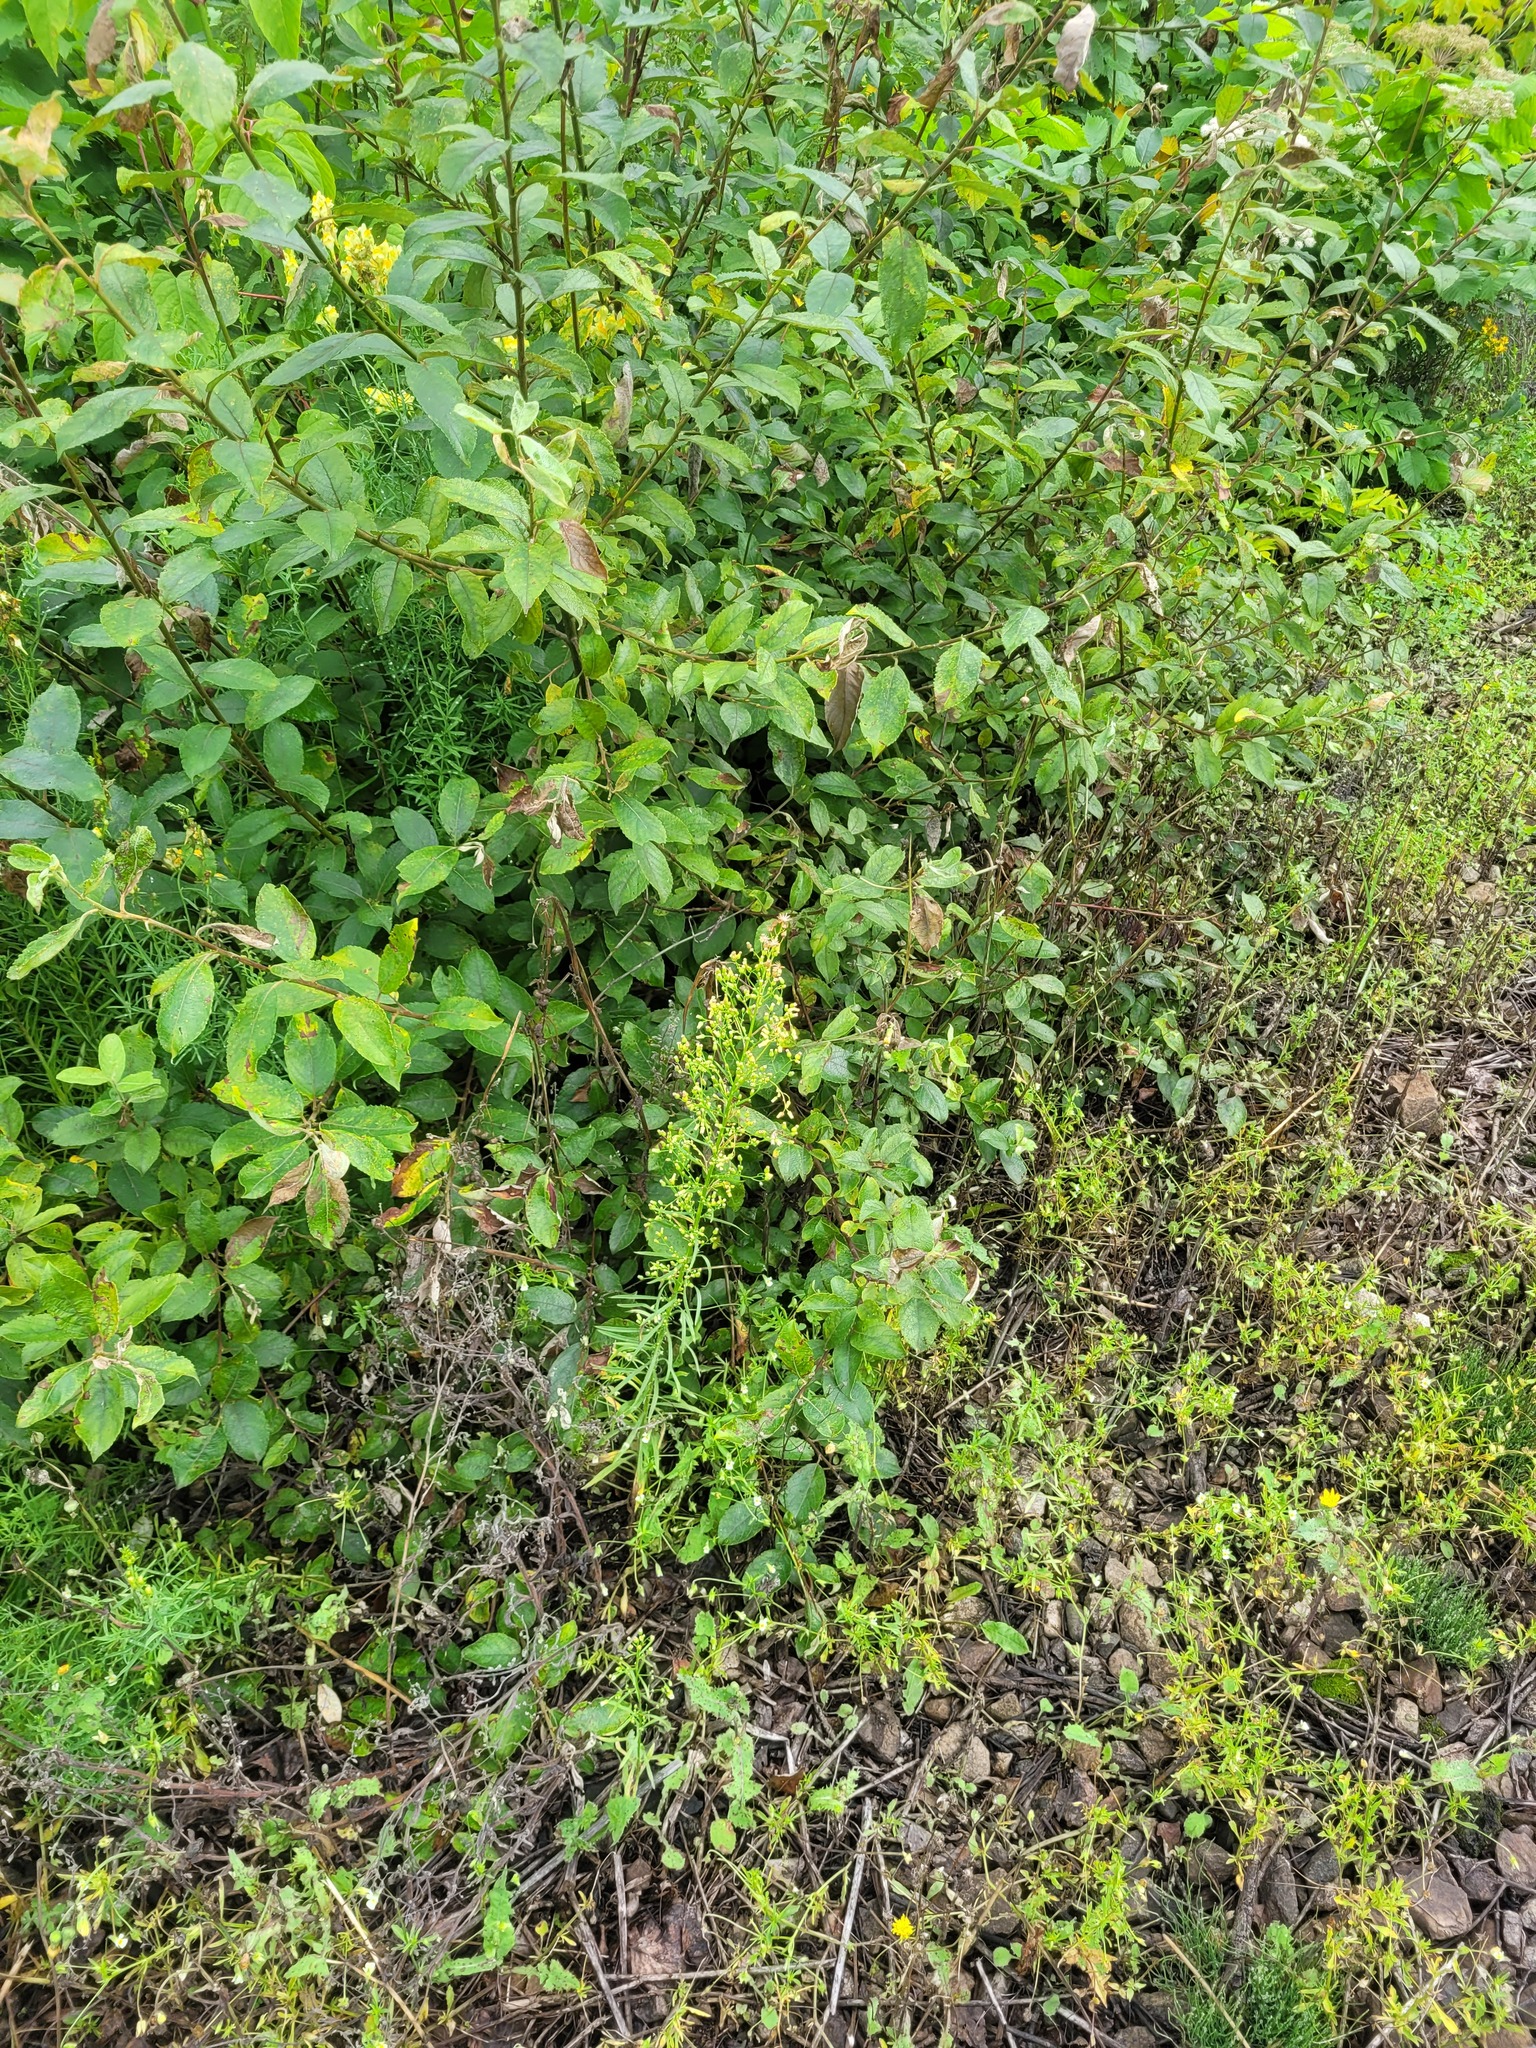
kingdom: Plantae
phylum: Tracheophyta
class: Magnoliopsida
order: Asterales
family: Asteraceae
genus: Erigeron
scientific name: Erigeron canadensis
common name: Canadian fleabane
